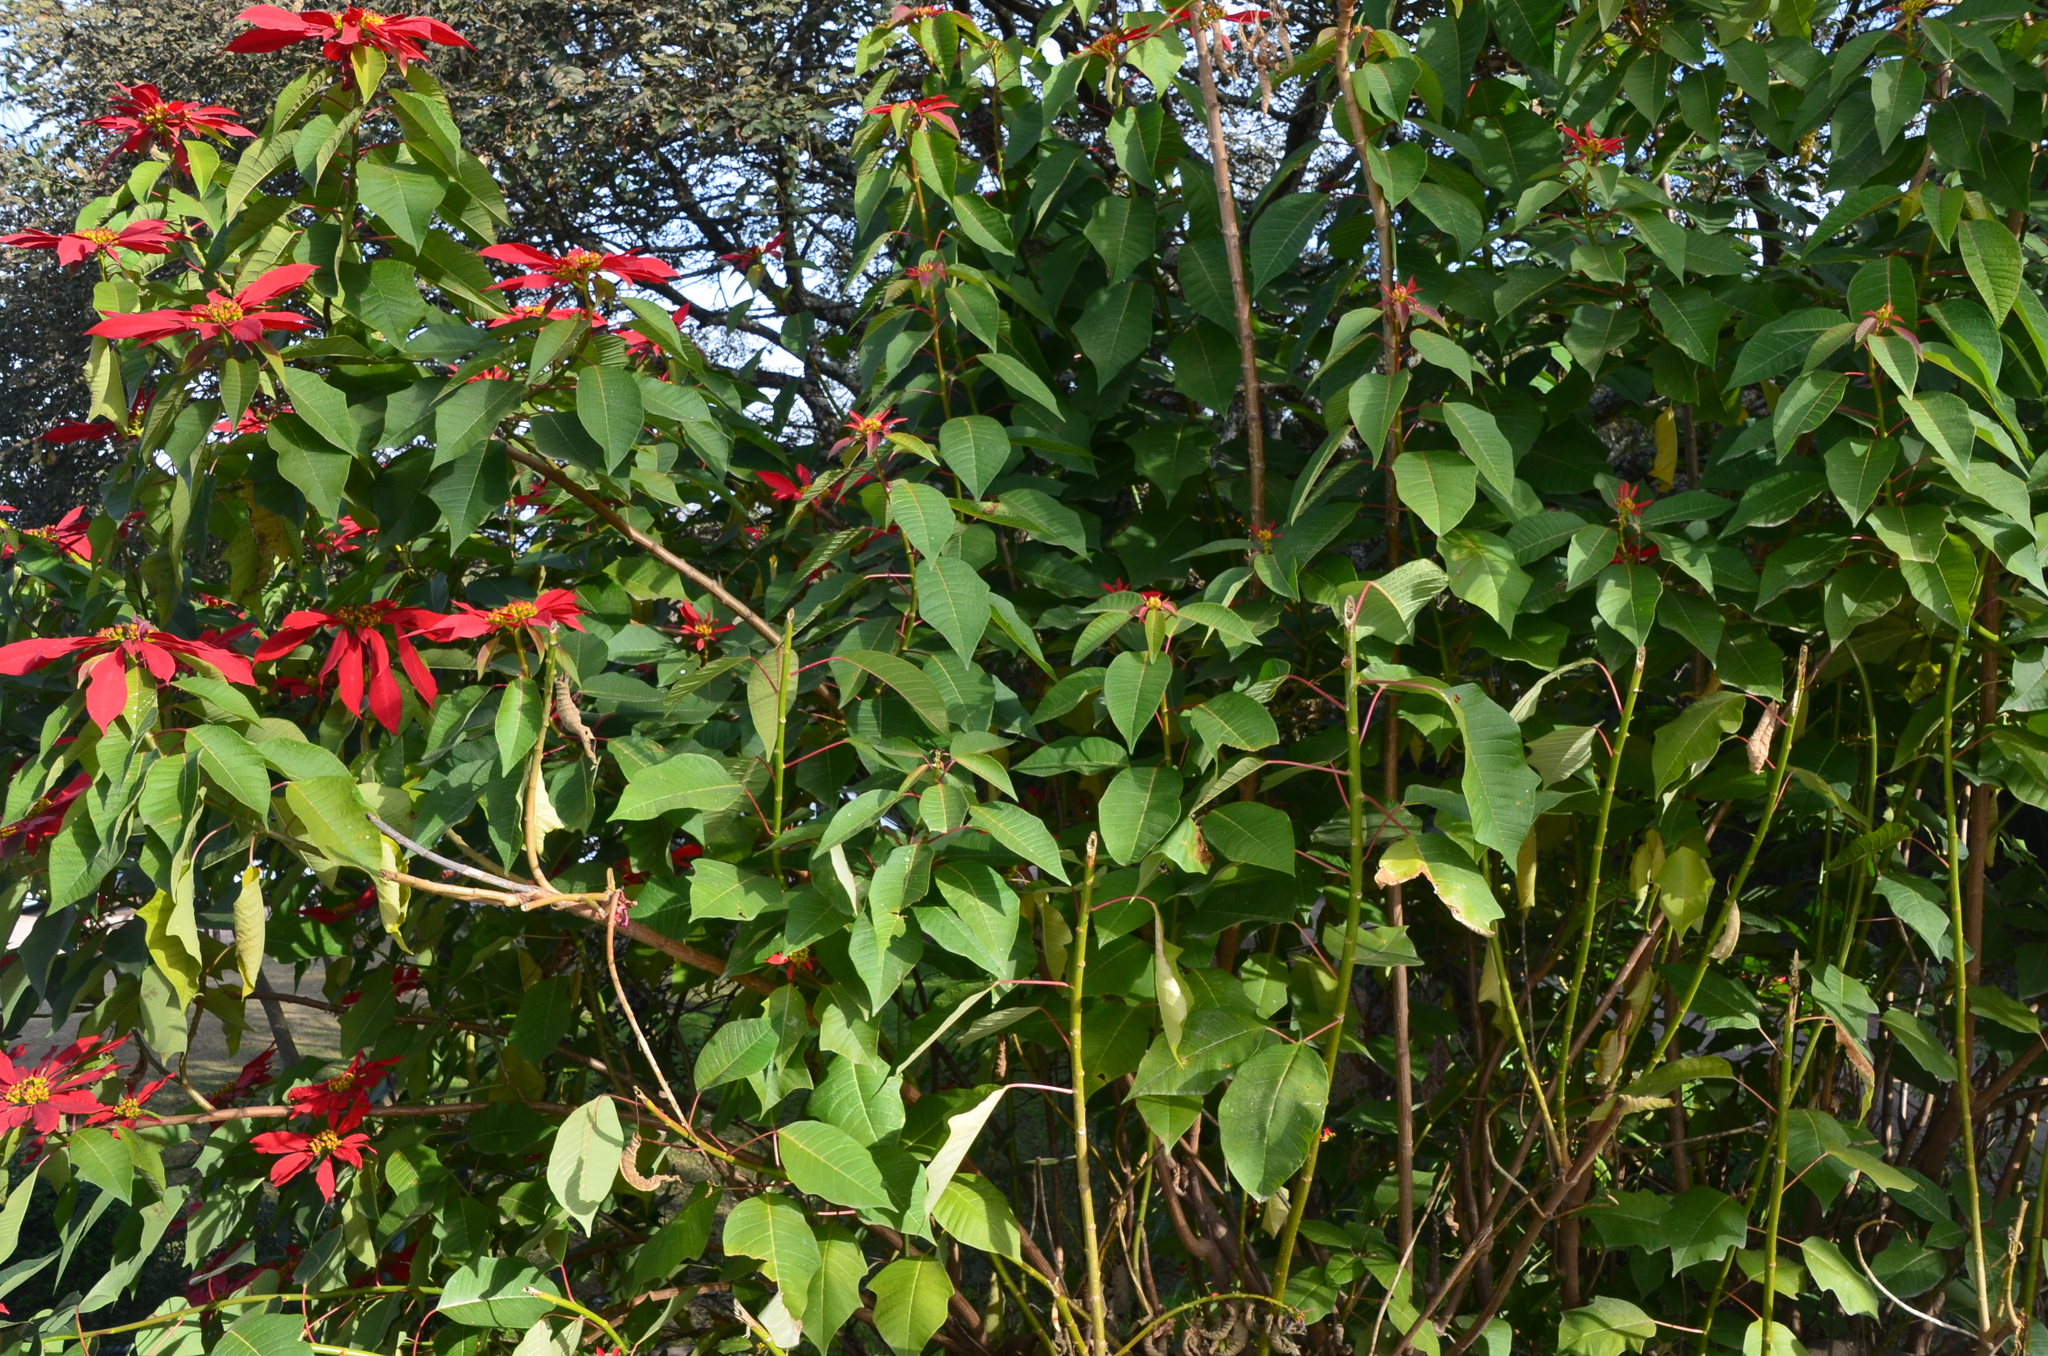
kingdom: Plantae
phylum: Tracheophyta
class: Magnoliopsida
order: Malpighiales
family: Euphorbiaceae
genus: Euphorbia
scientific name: Euphorbia pulcherrima
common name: Christmas-flower
